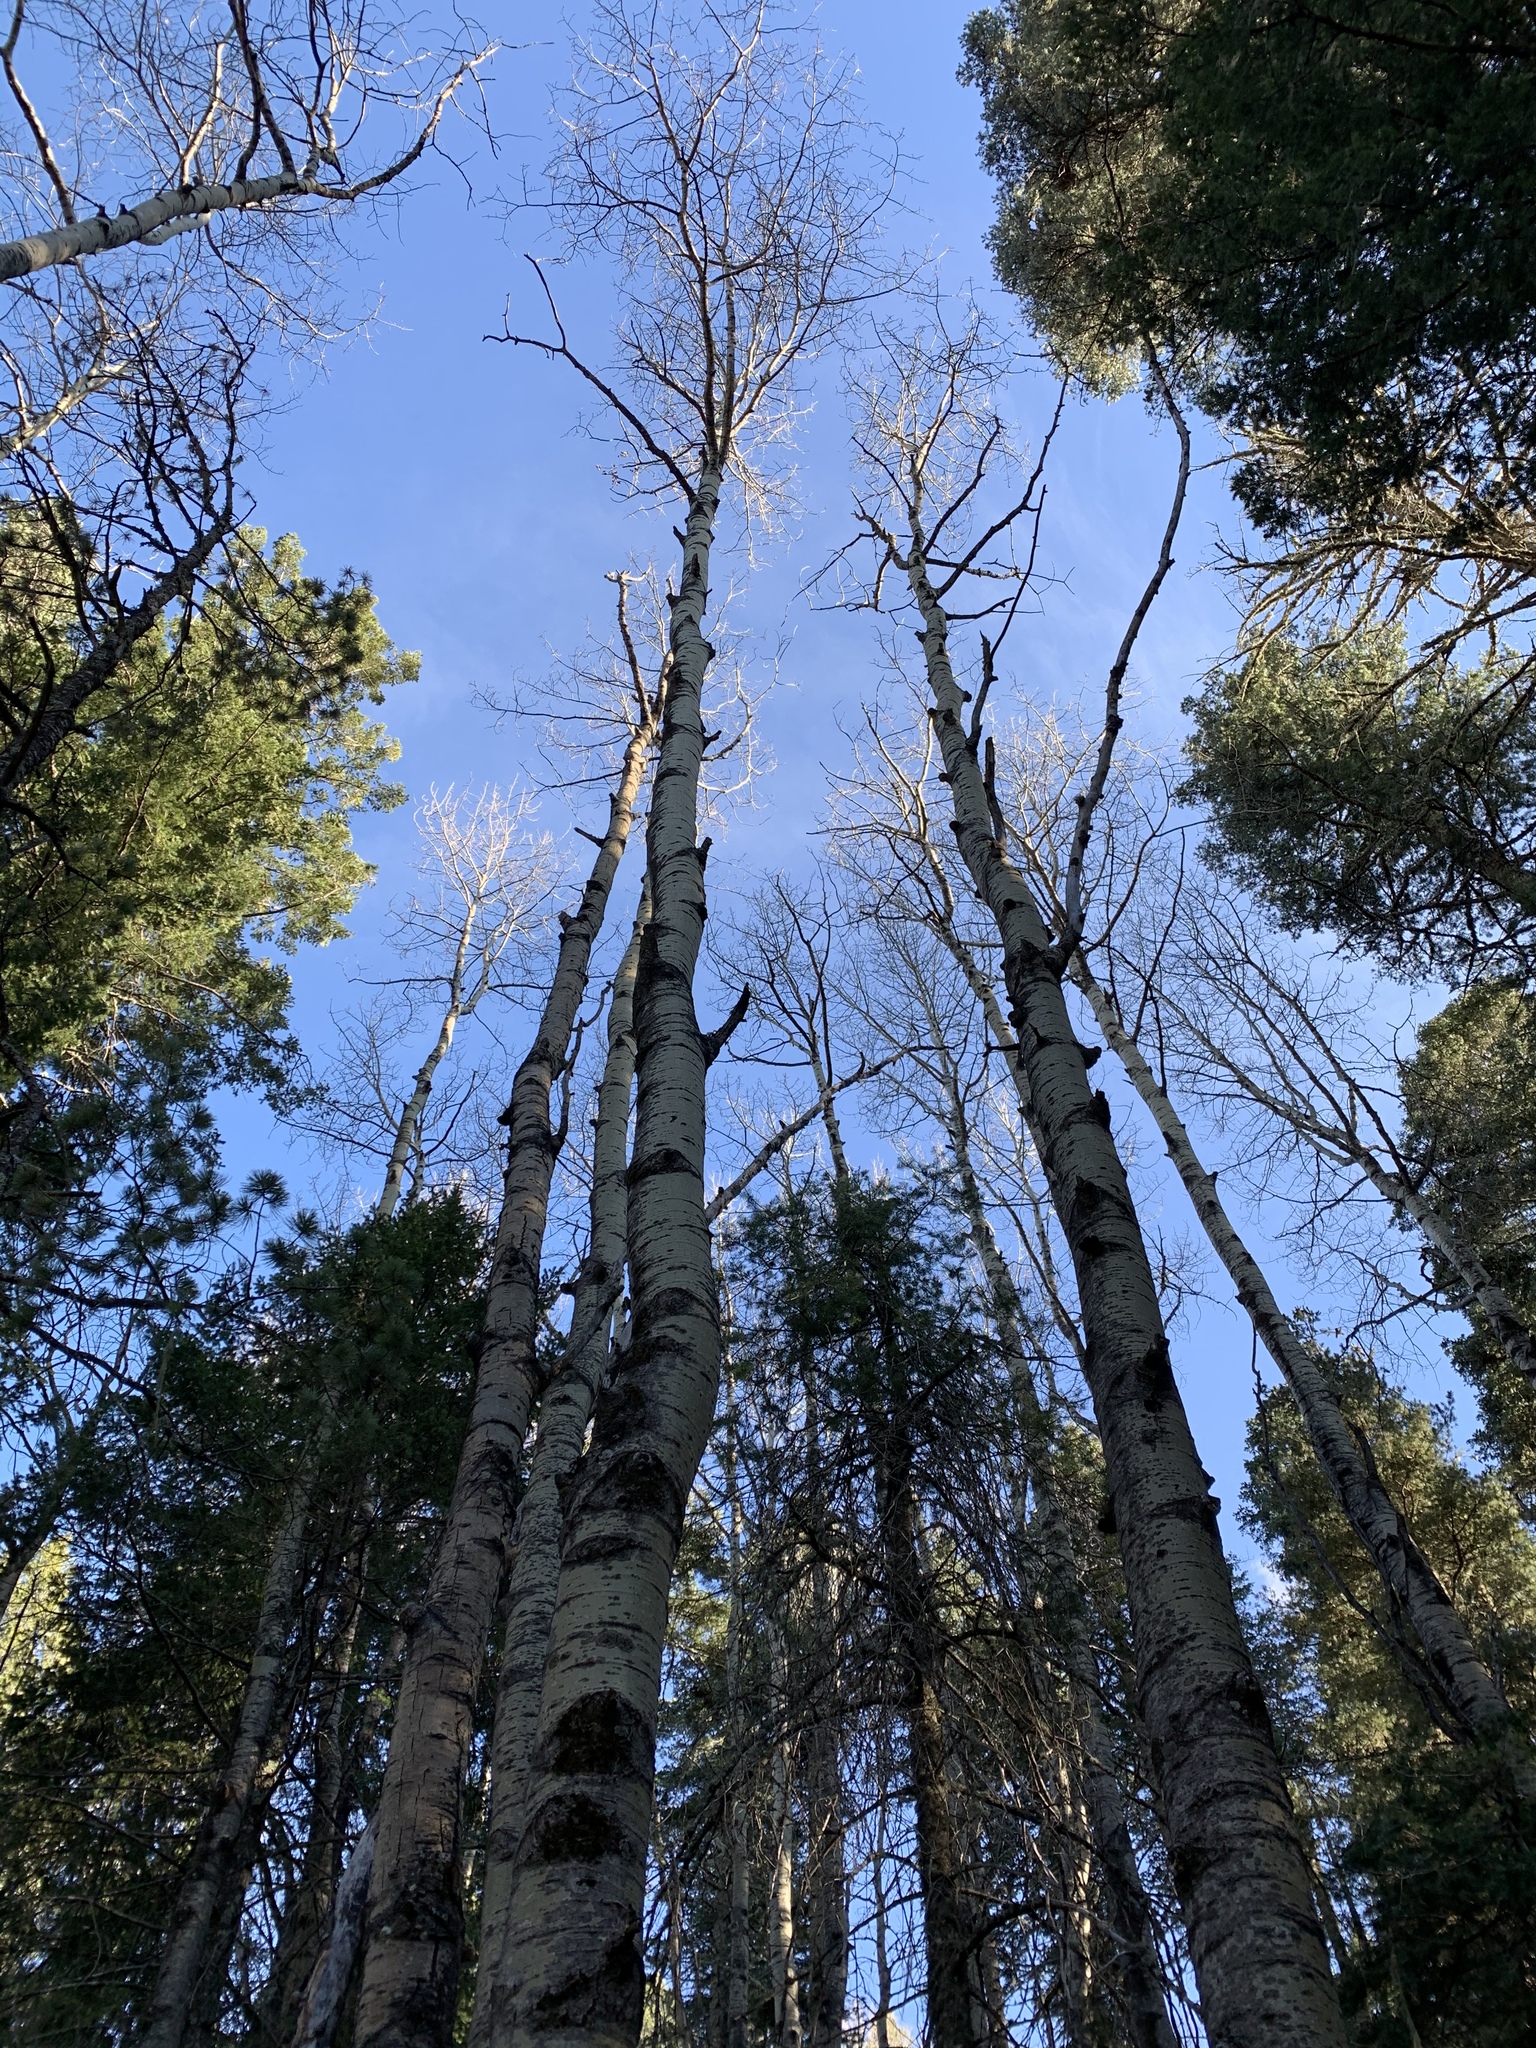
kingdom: Plantae
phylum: Tracheophyta
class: Magnoliopsida
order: Malpighiales
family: Salicaceae
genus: Populus
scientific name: Populus tremuloides
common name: Quaking aspen
